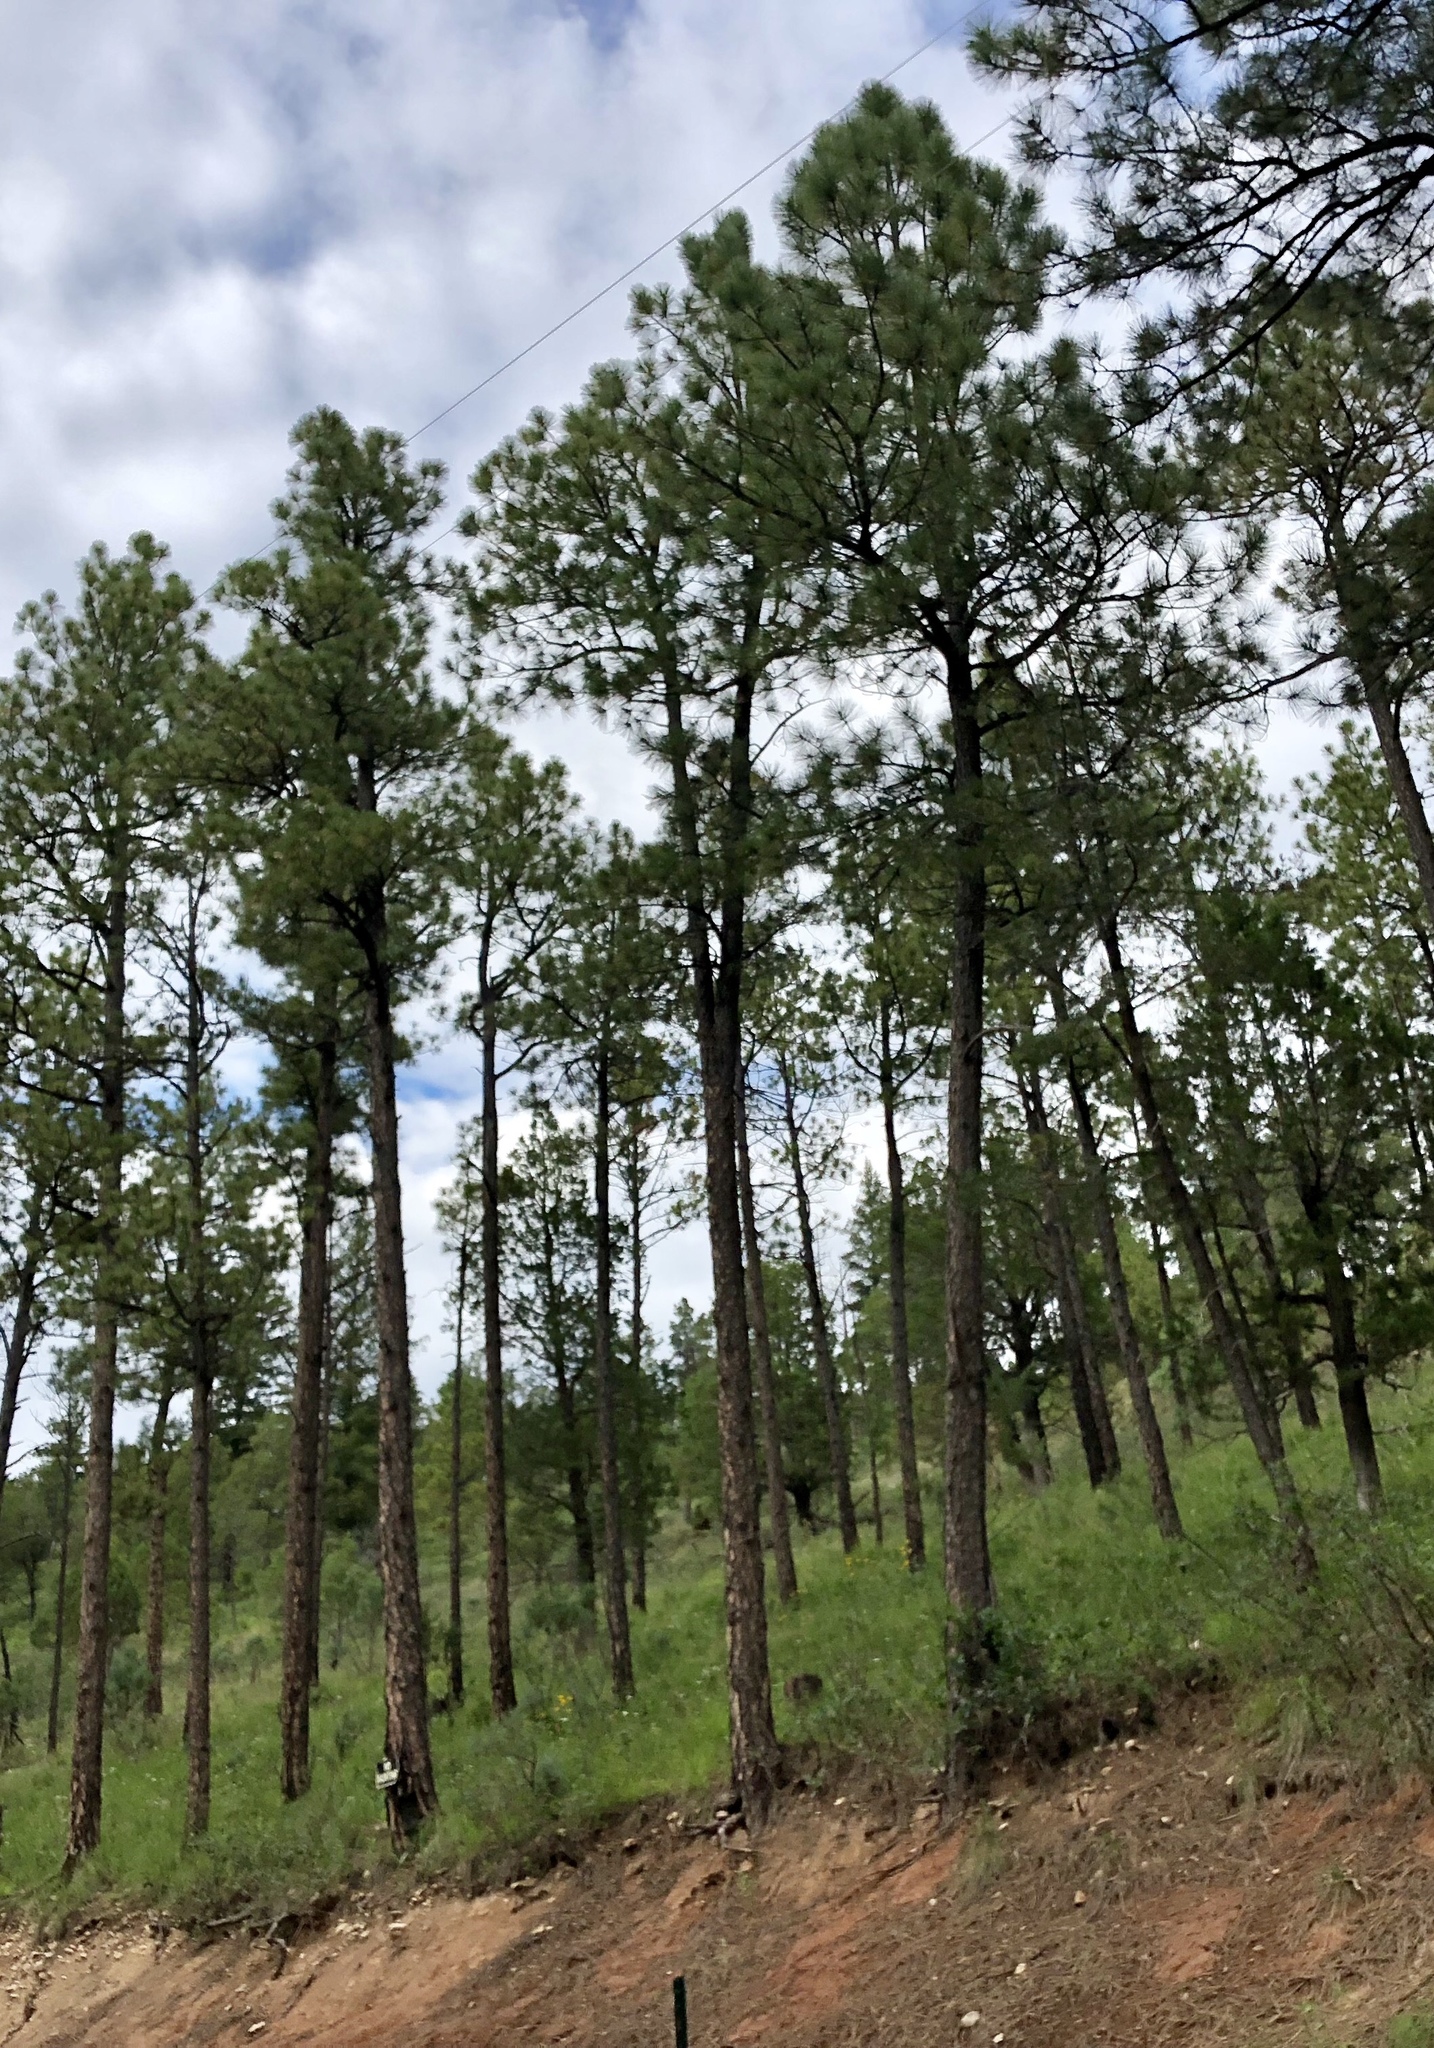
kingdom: Plantae
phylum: Tracheophyta
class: Pinopsida
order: Pinales
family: Pinaceae
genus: Pinus
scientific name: Pinus ponderosa
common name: Western yellow-pine
